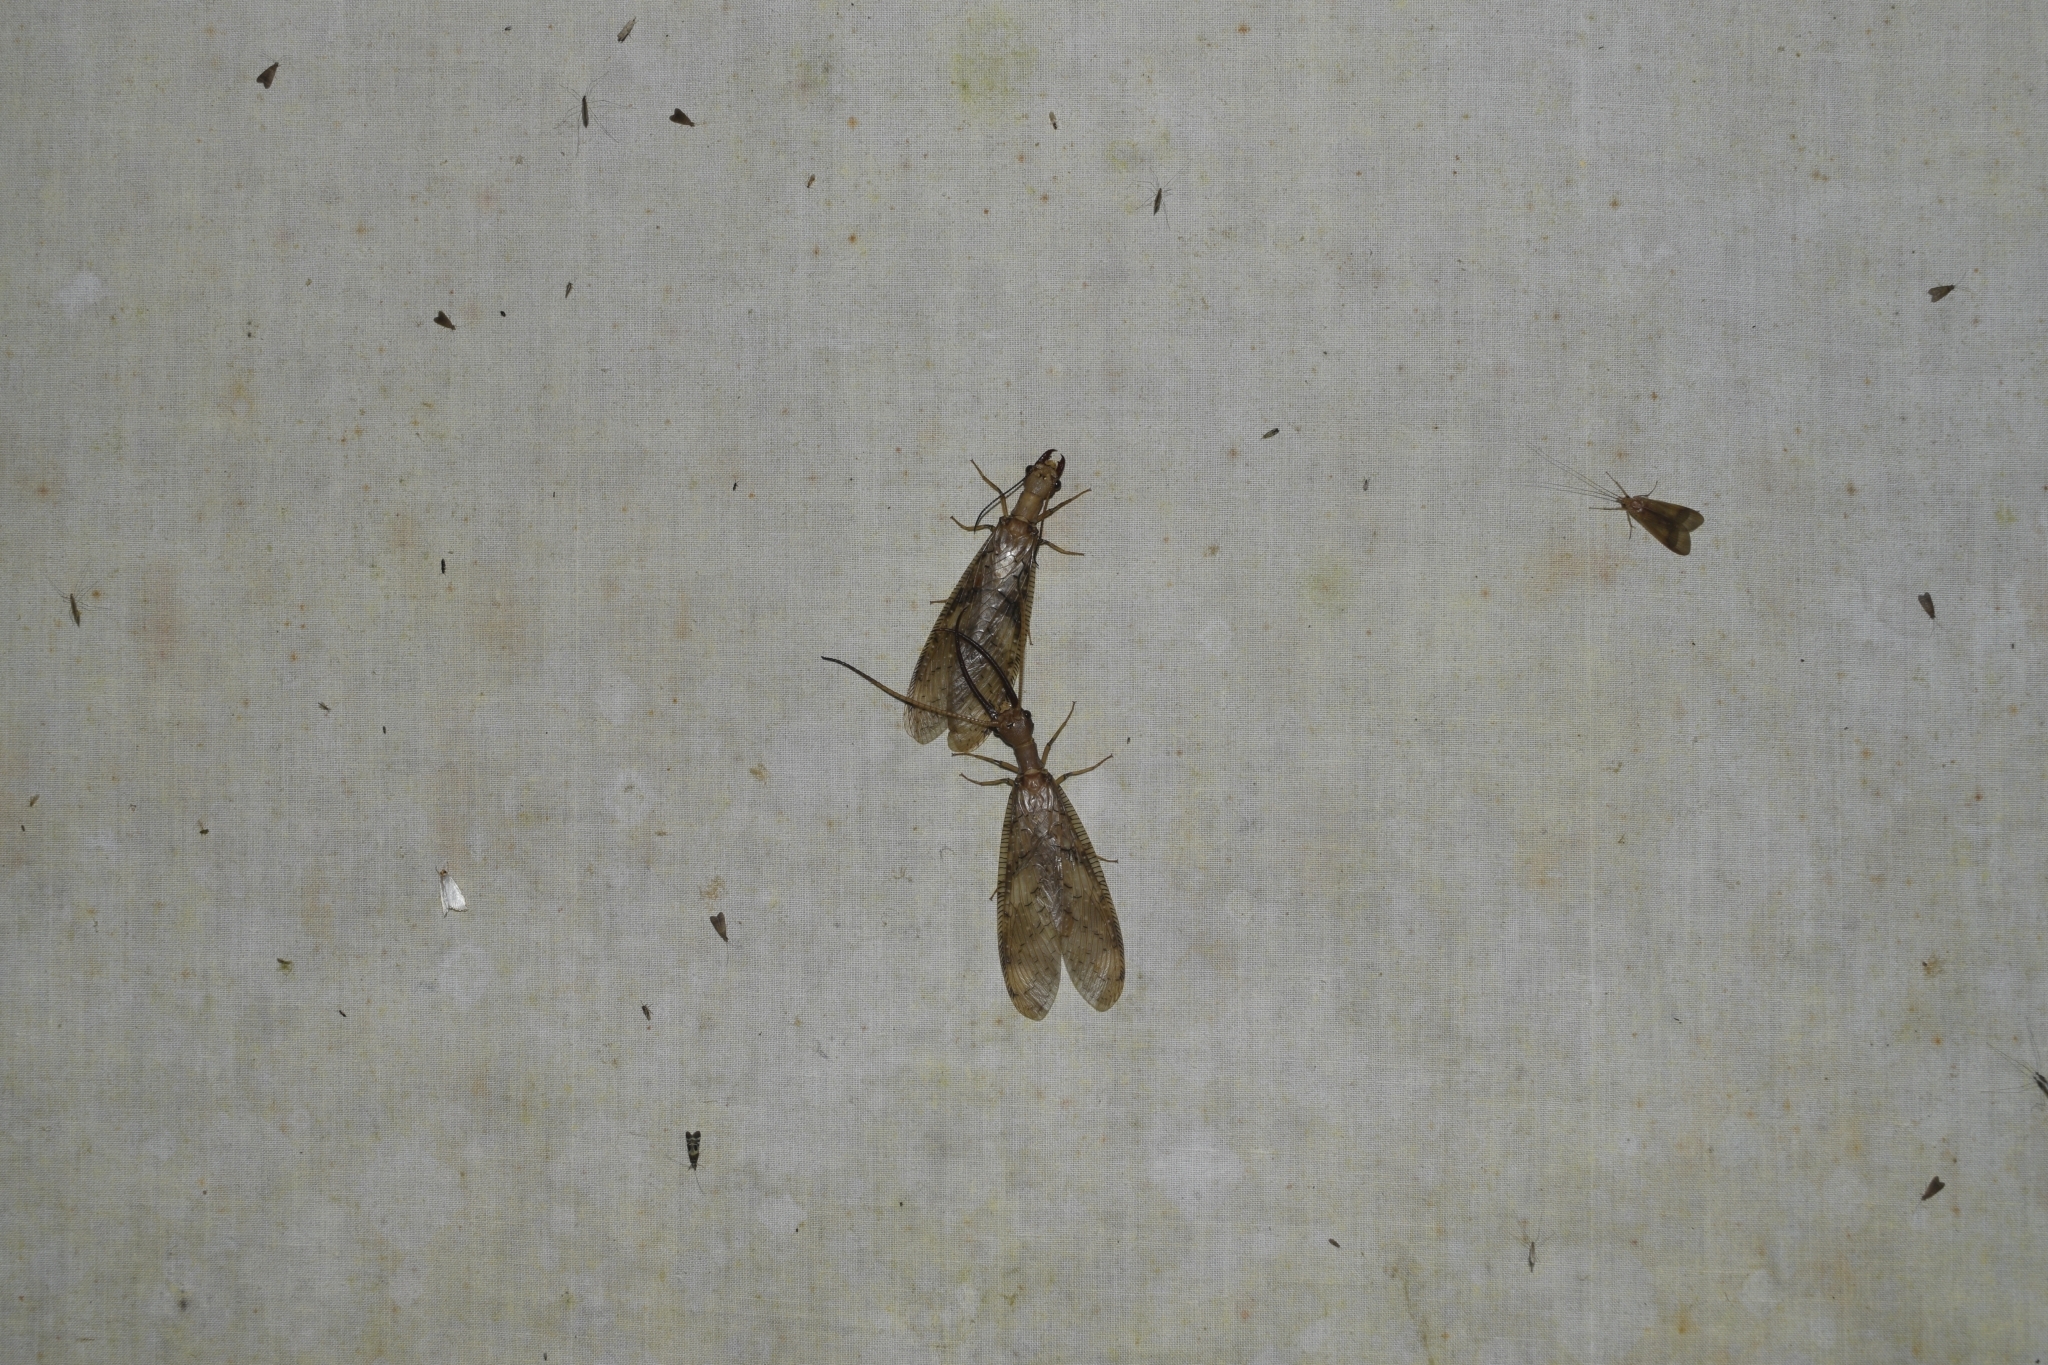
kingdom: Animalia
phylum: Arthropoda
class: Insecta
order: Megaloptera
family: Corydalidae
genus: Corydalus
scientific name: Corydalus flavicornis
